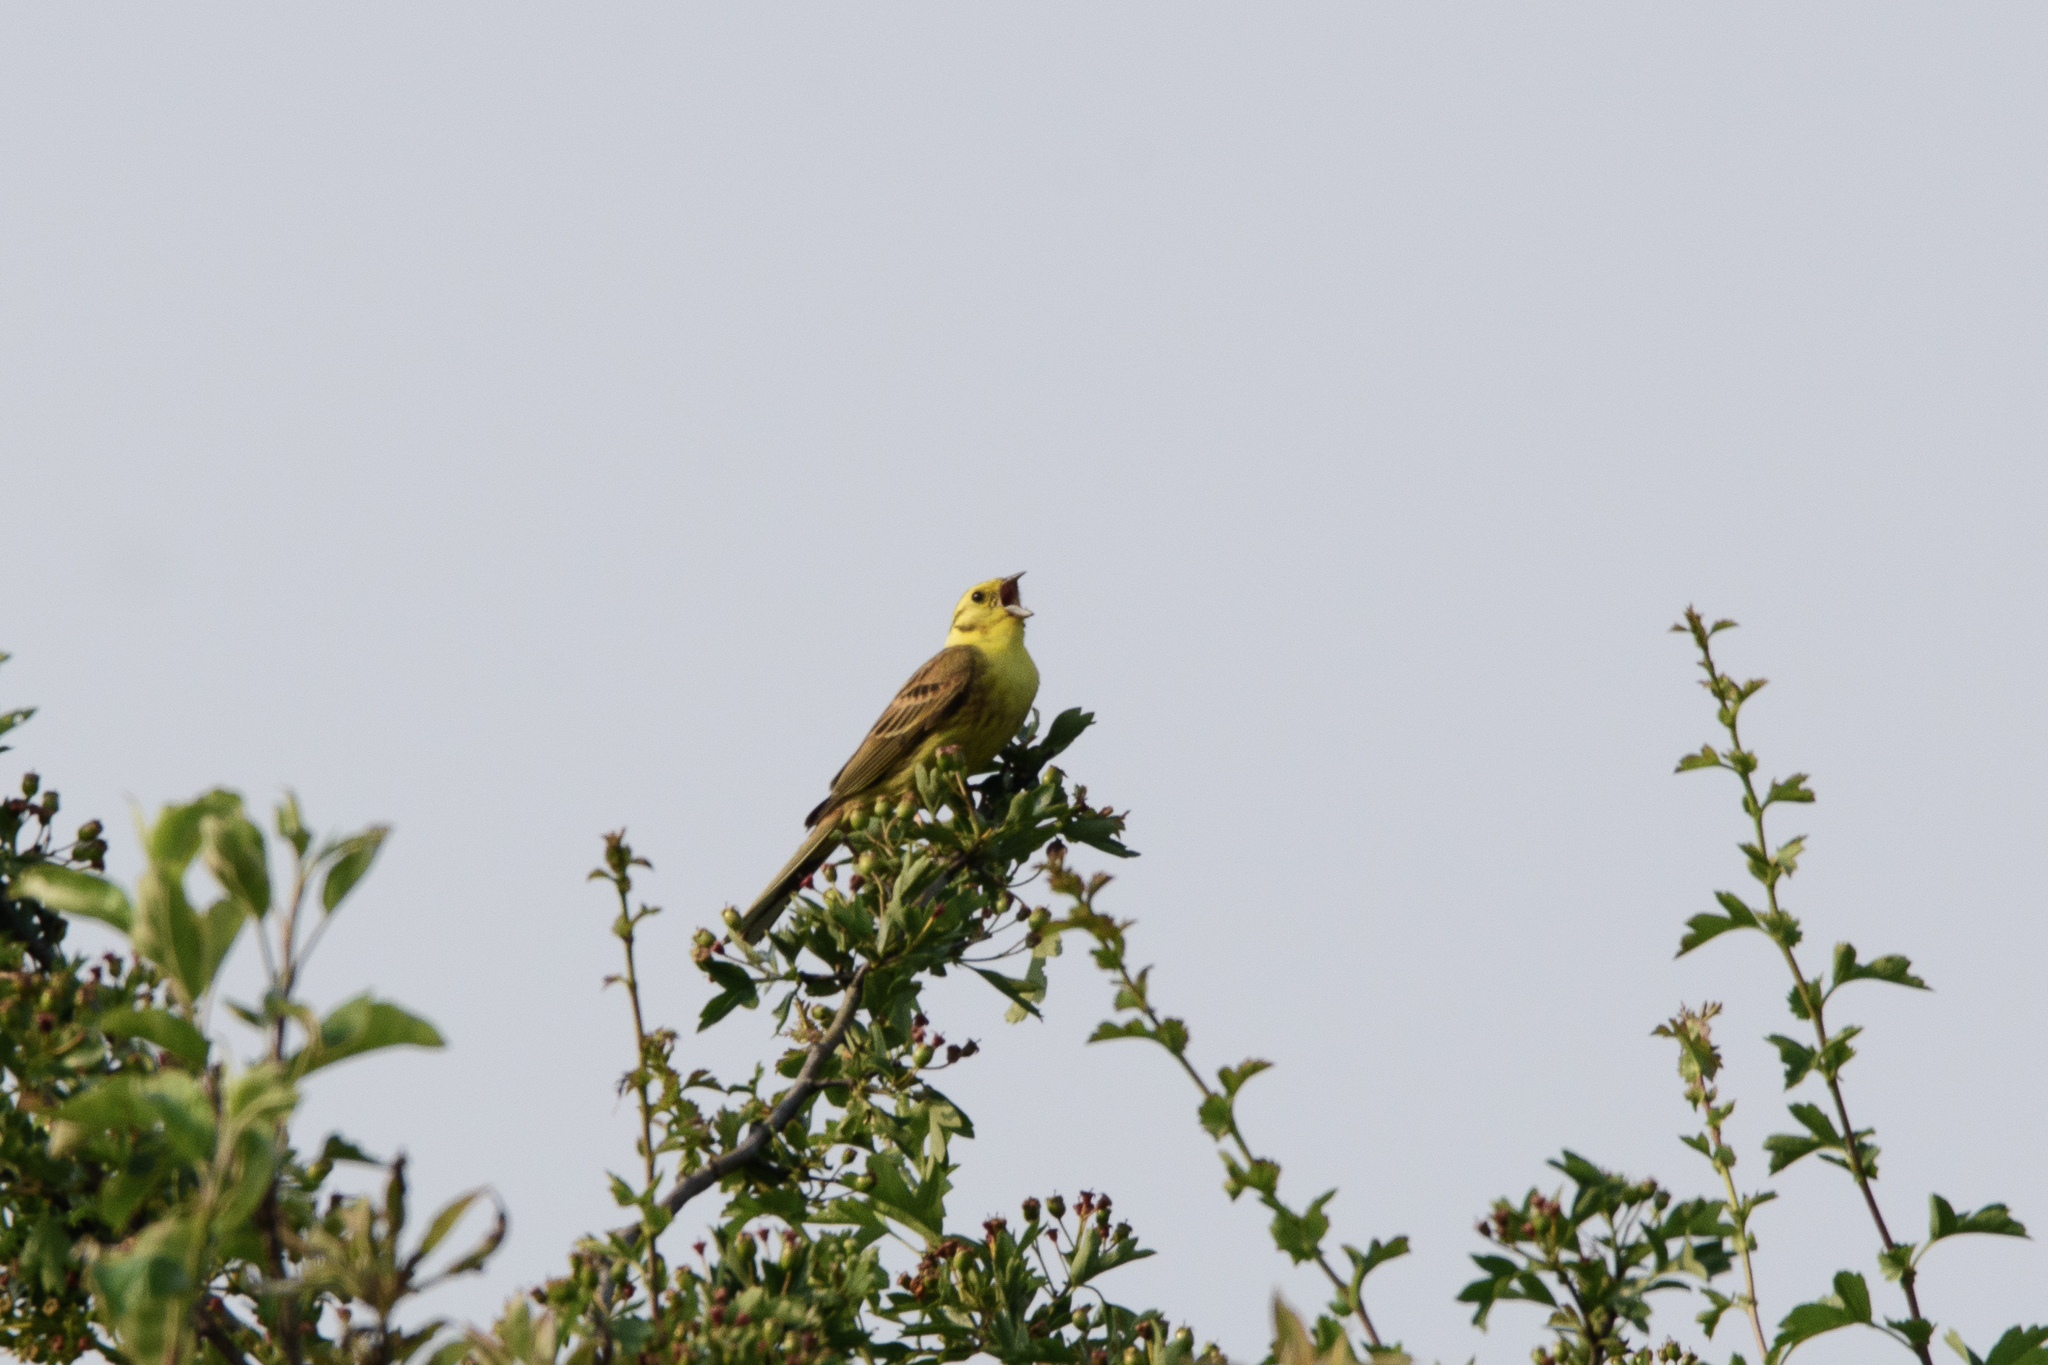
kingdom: Animalia
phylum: Chordata
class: Aves
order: Passeriformes
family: Emberizidae
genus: Emberiza
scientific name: Emberiza citrinella
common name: Yellowhammer
